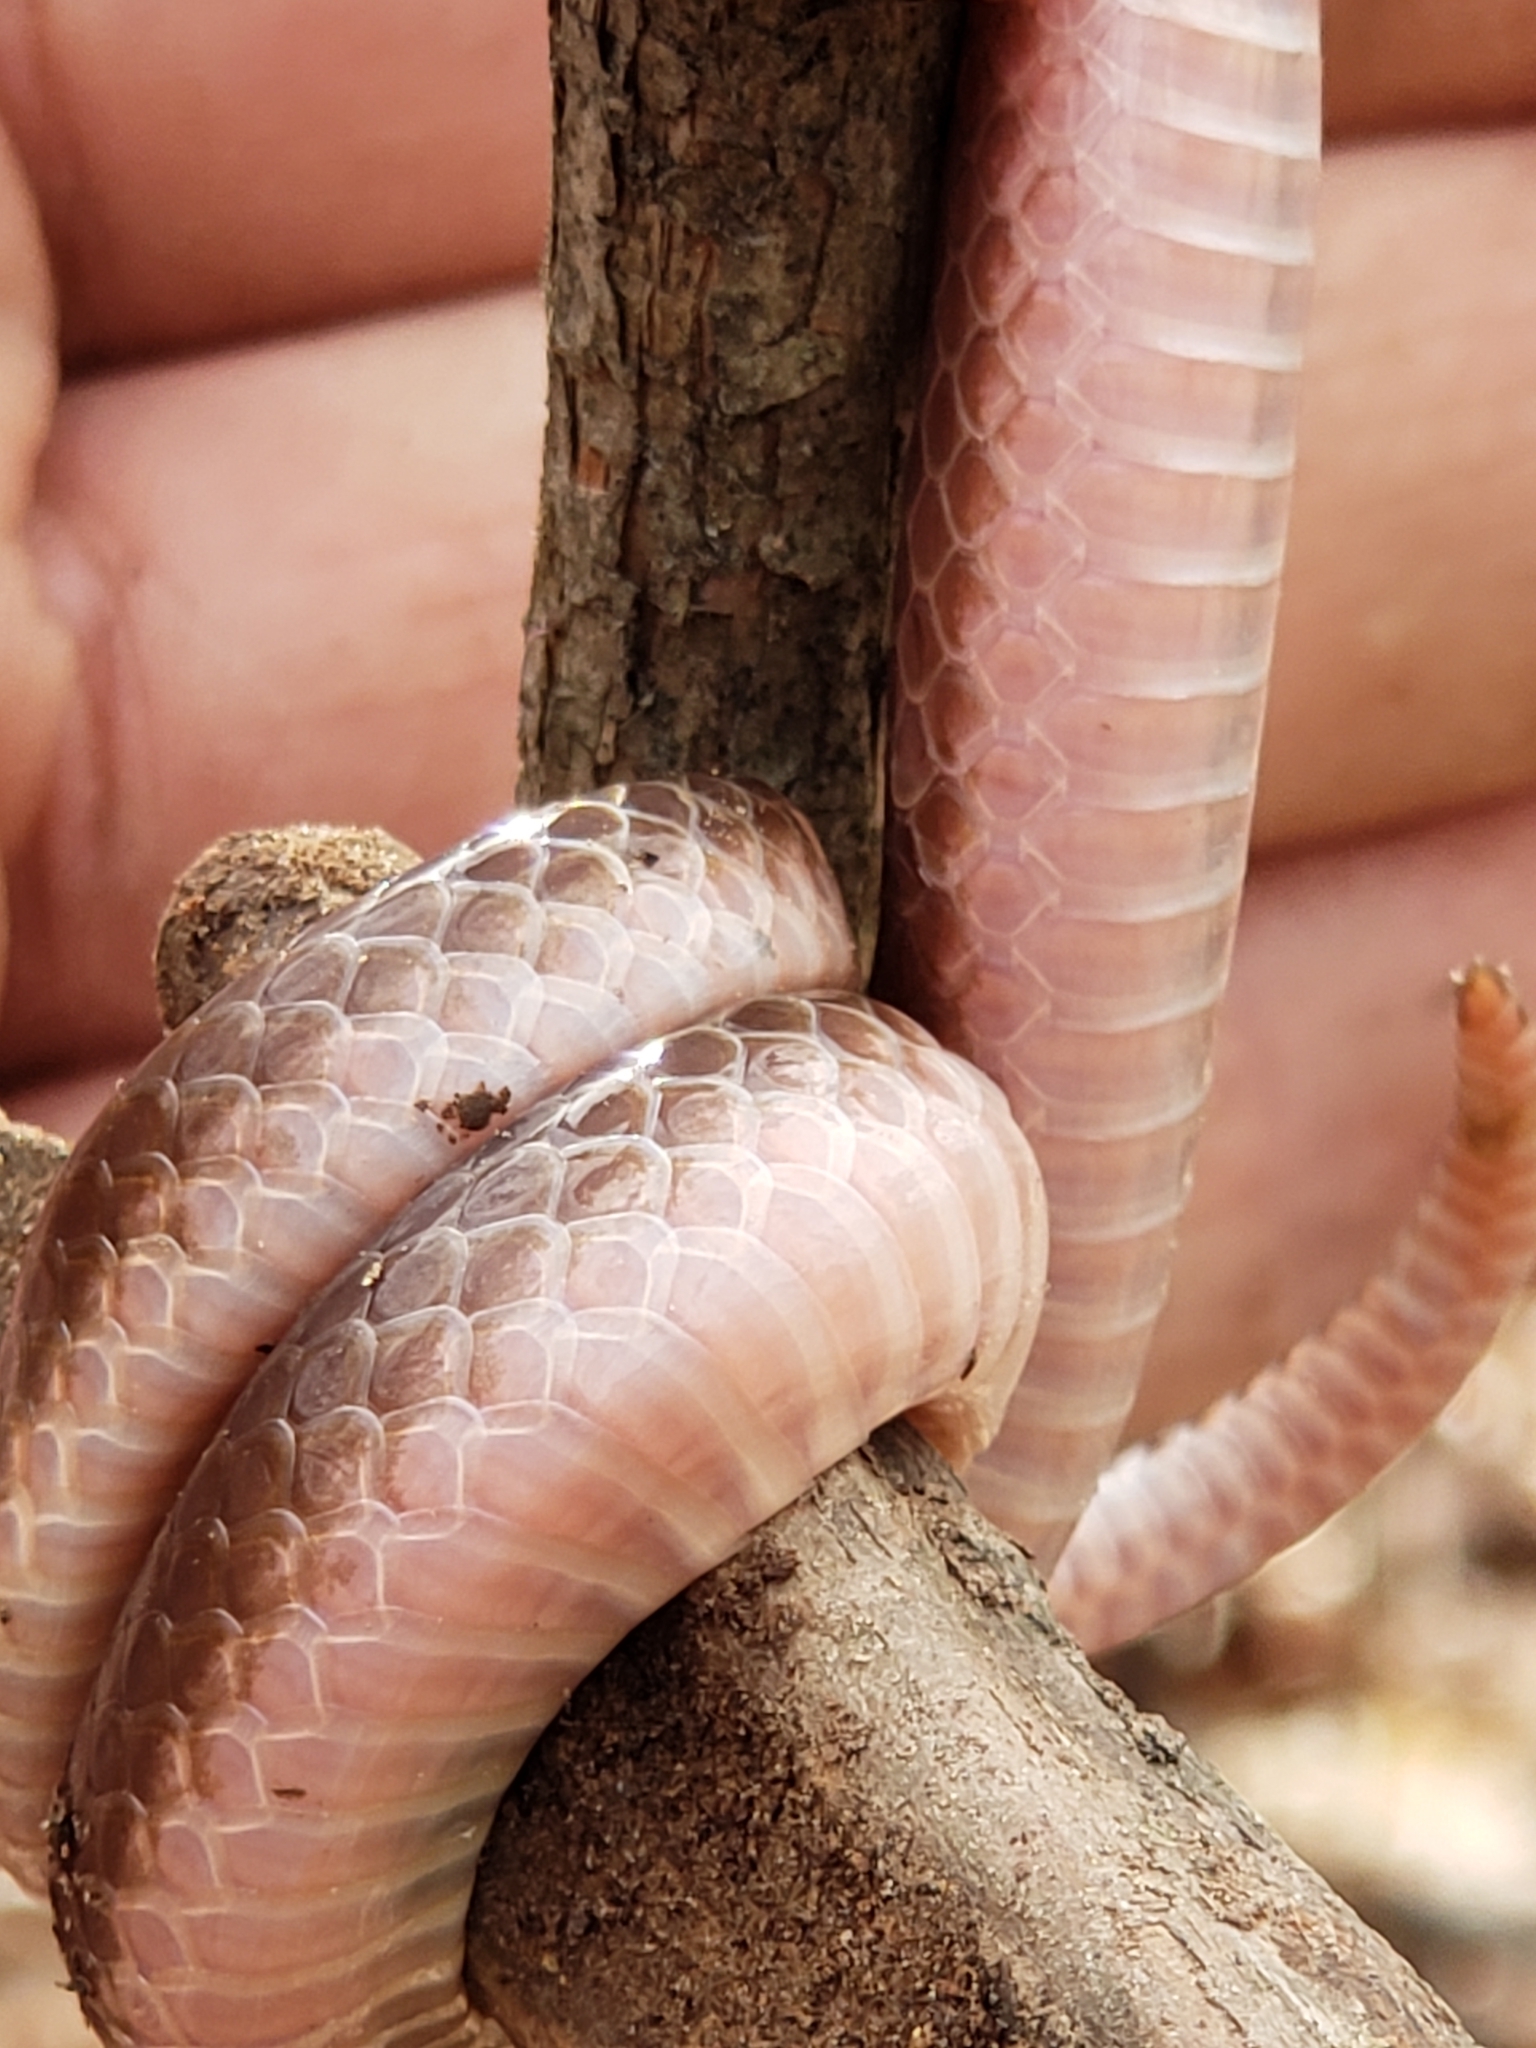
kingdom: Animalia
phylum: Chordata
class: Squamata
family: Colubridae
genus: Carphophis
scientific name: Carphophis amoenus
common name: Eastern worm snake
